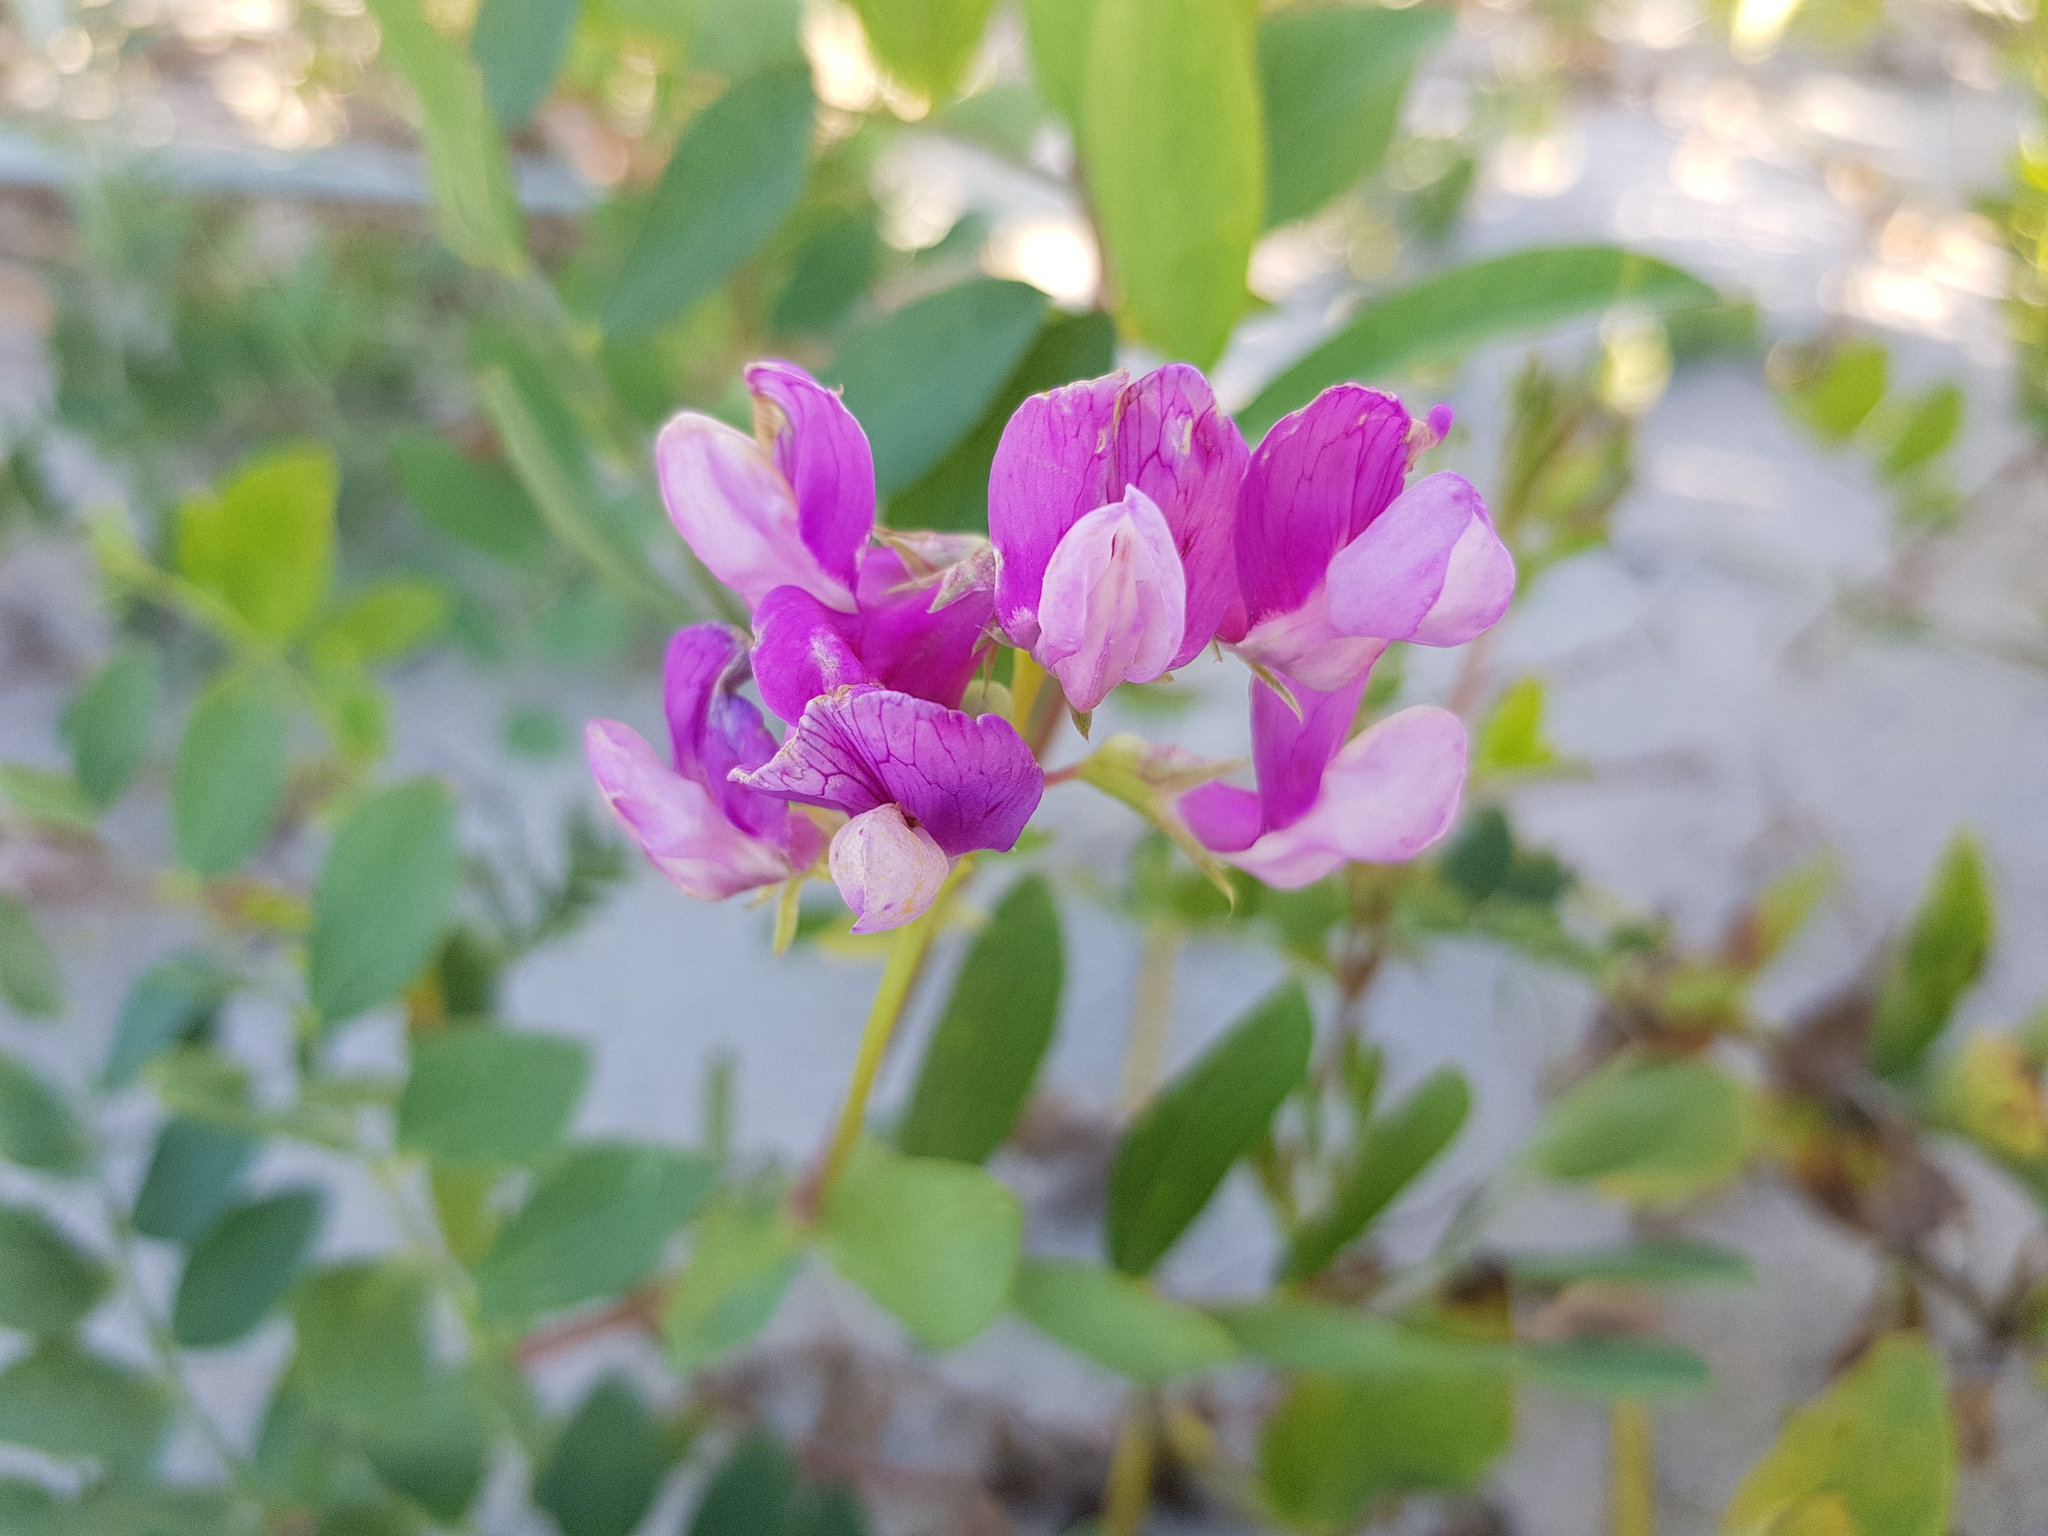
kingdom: Plantae
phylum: Tracheophyta
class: Magnoliopsida
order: Fabales
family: Fabaceae
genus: Lathyrus
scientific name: Lathyrus japonicus
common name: Sea pea
